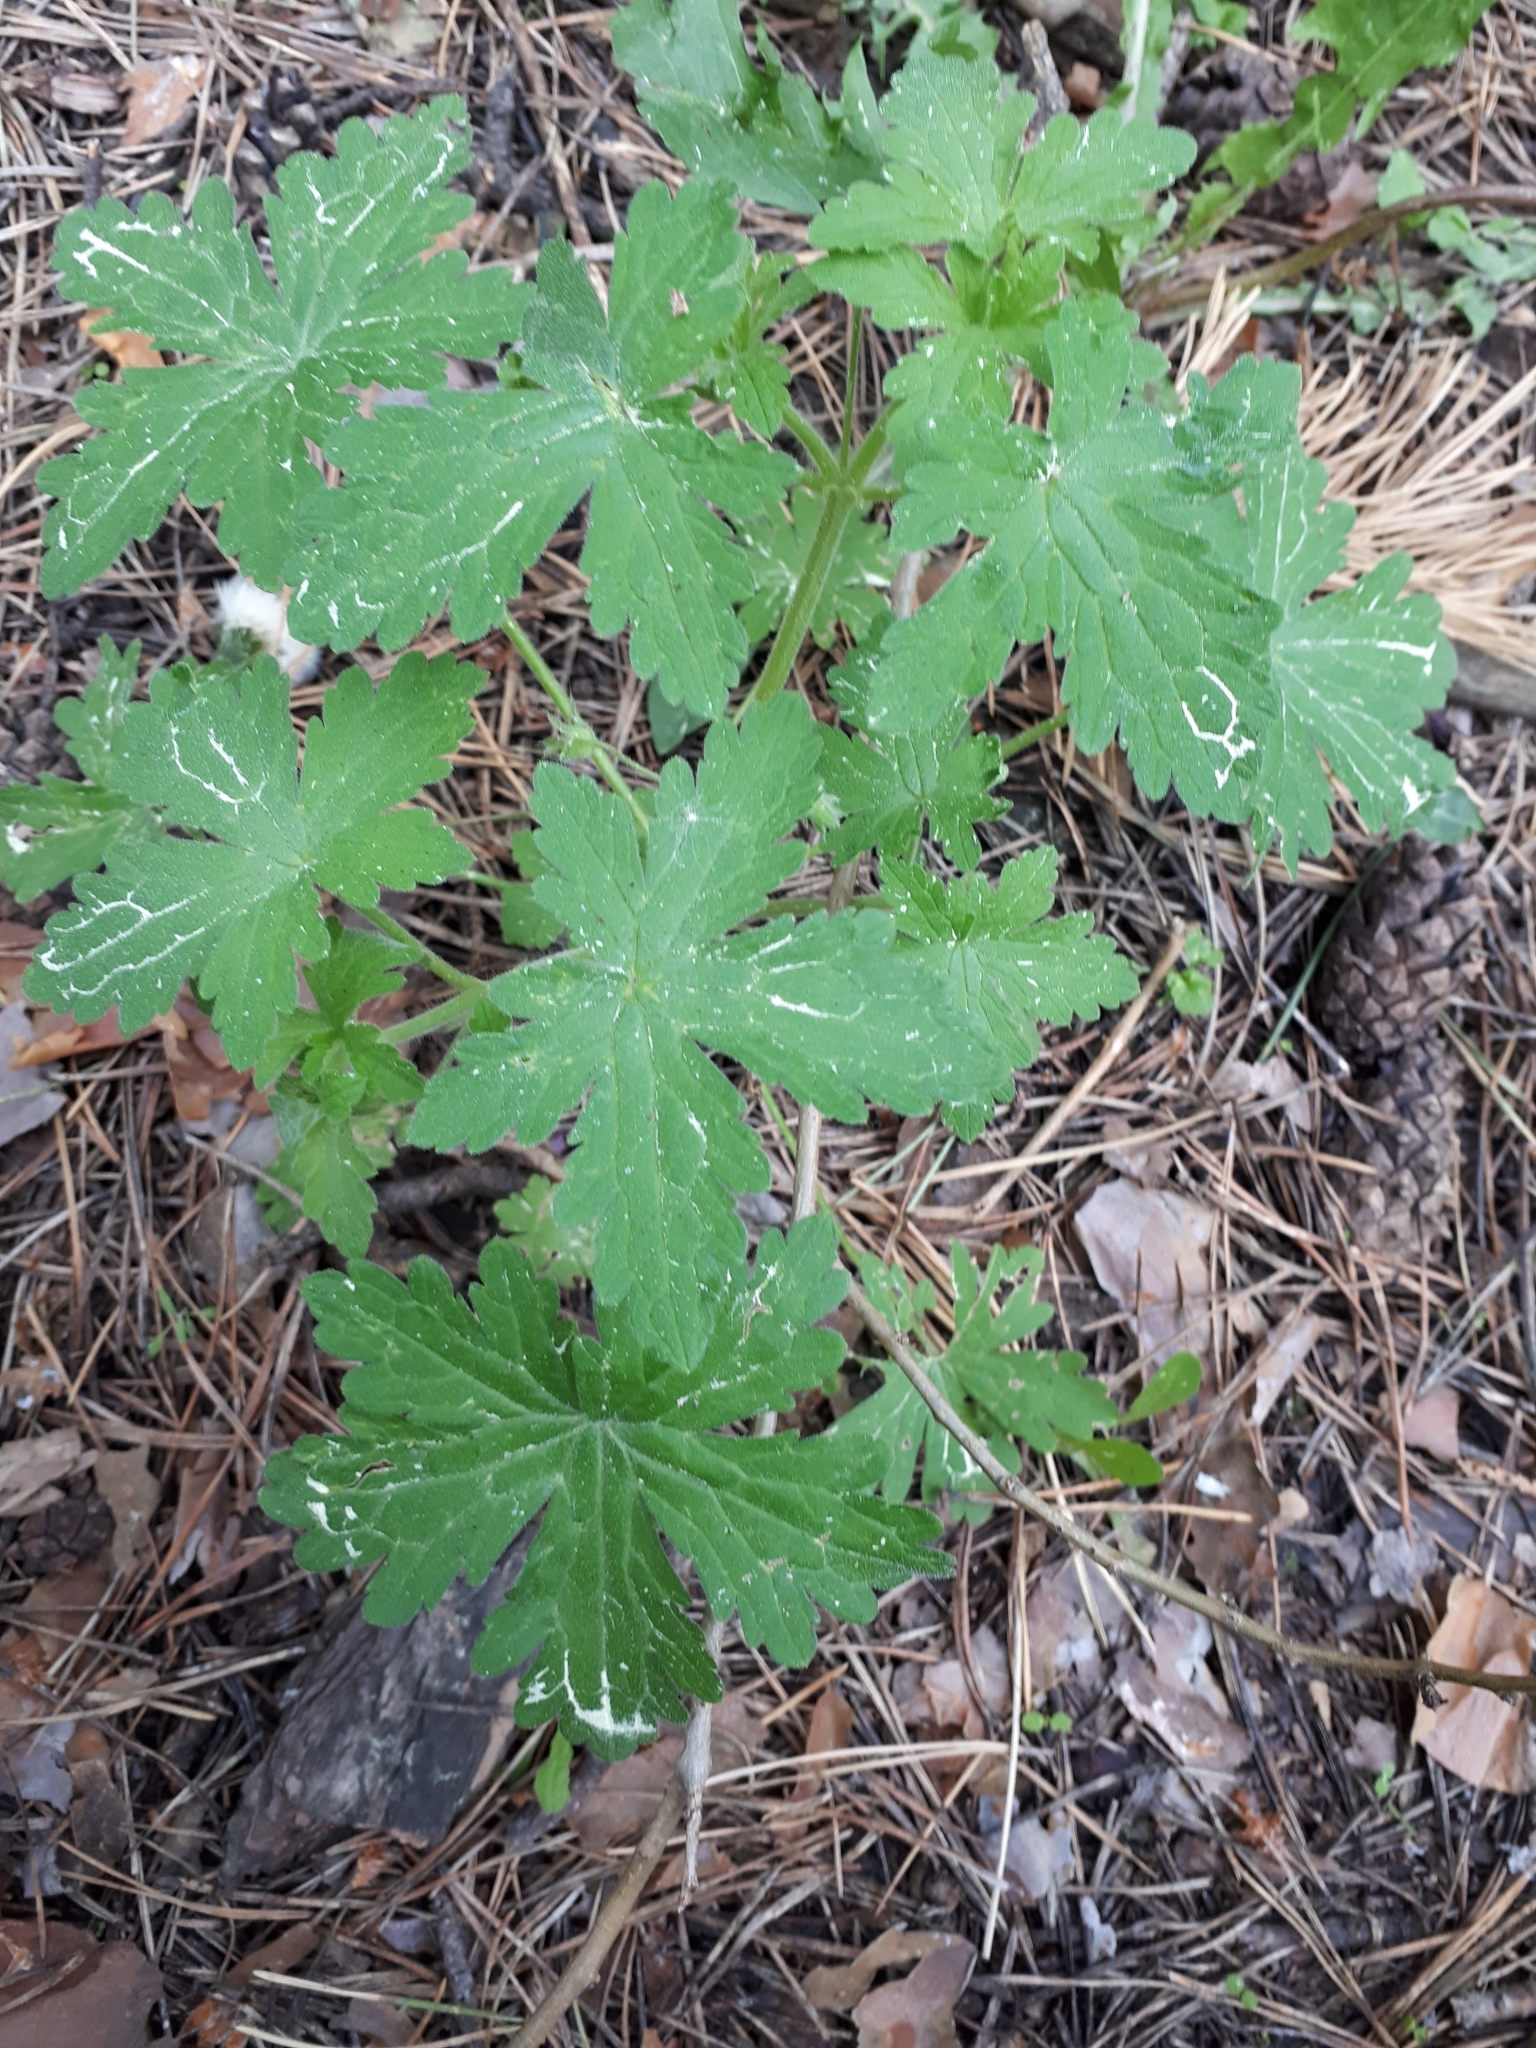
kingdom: Plantae
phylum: Tracheophyta
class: Magnoliopsida
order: Geraniales
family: Geraniaceae
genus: Geranium
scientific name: Geranium sylvaticum
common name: Wood crane's-bill
